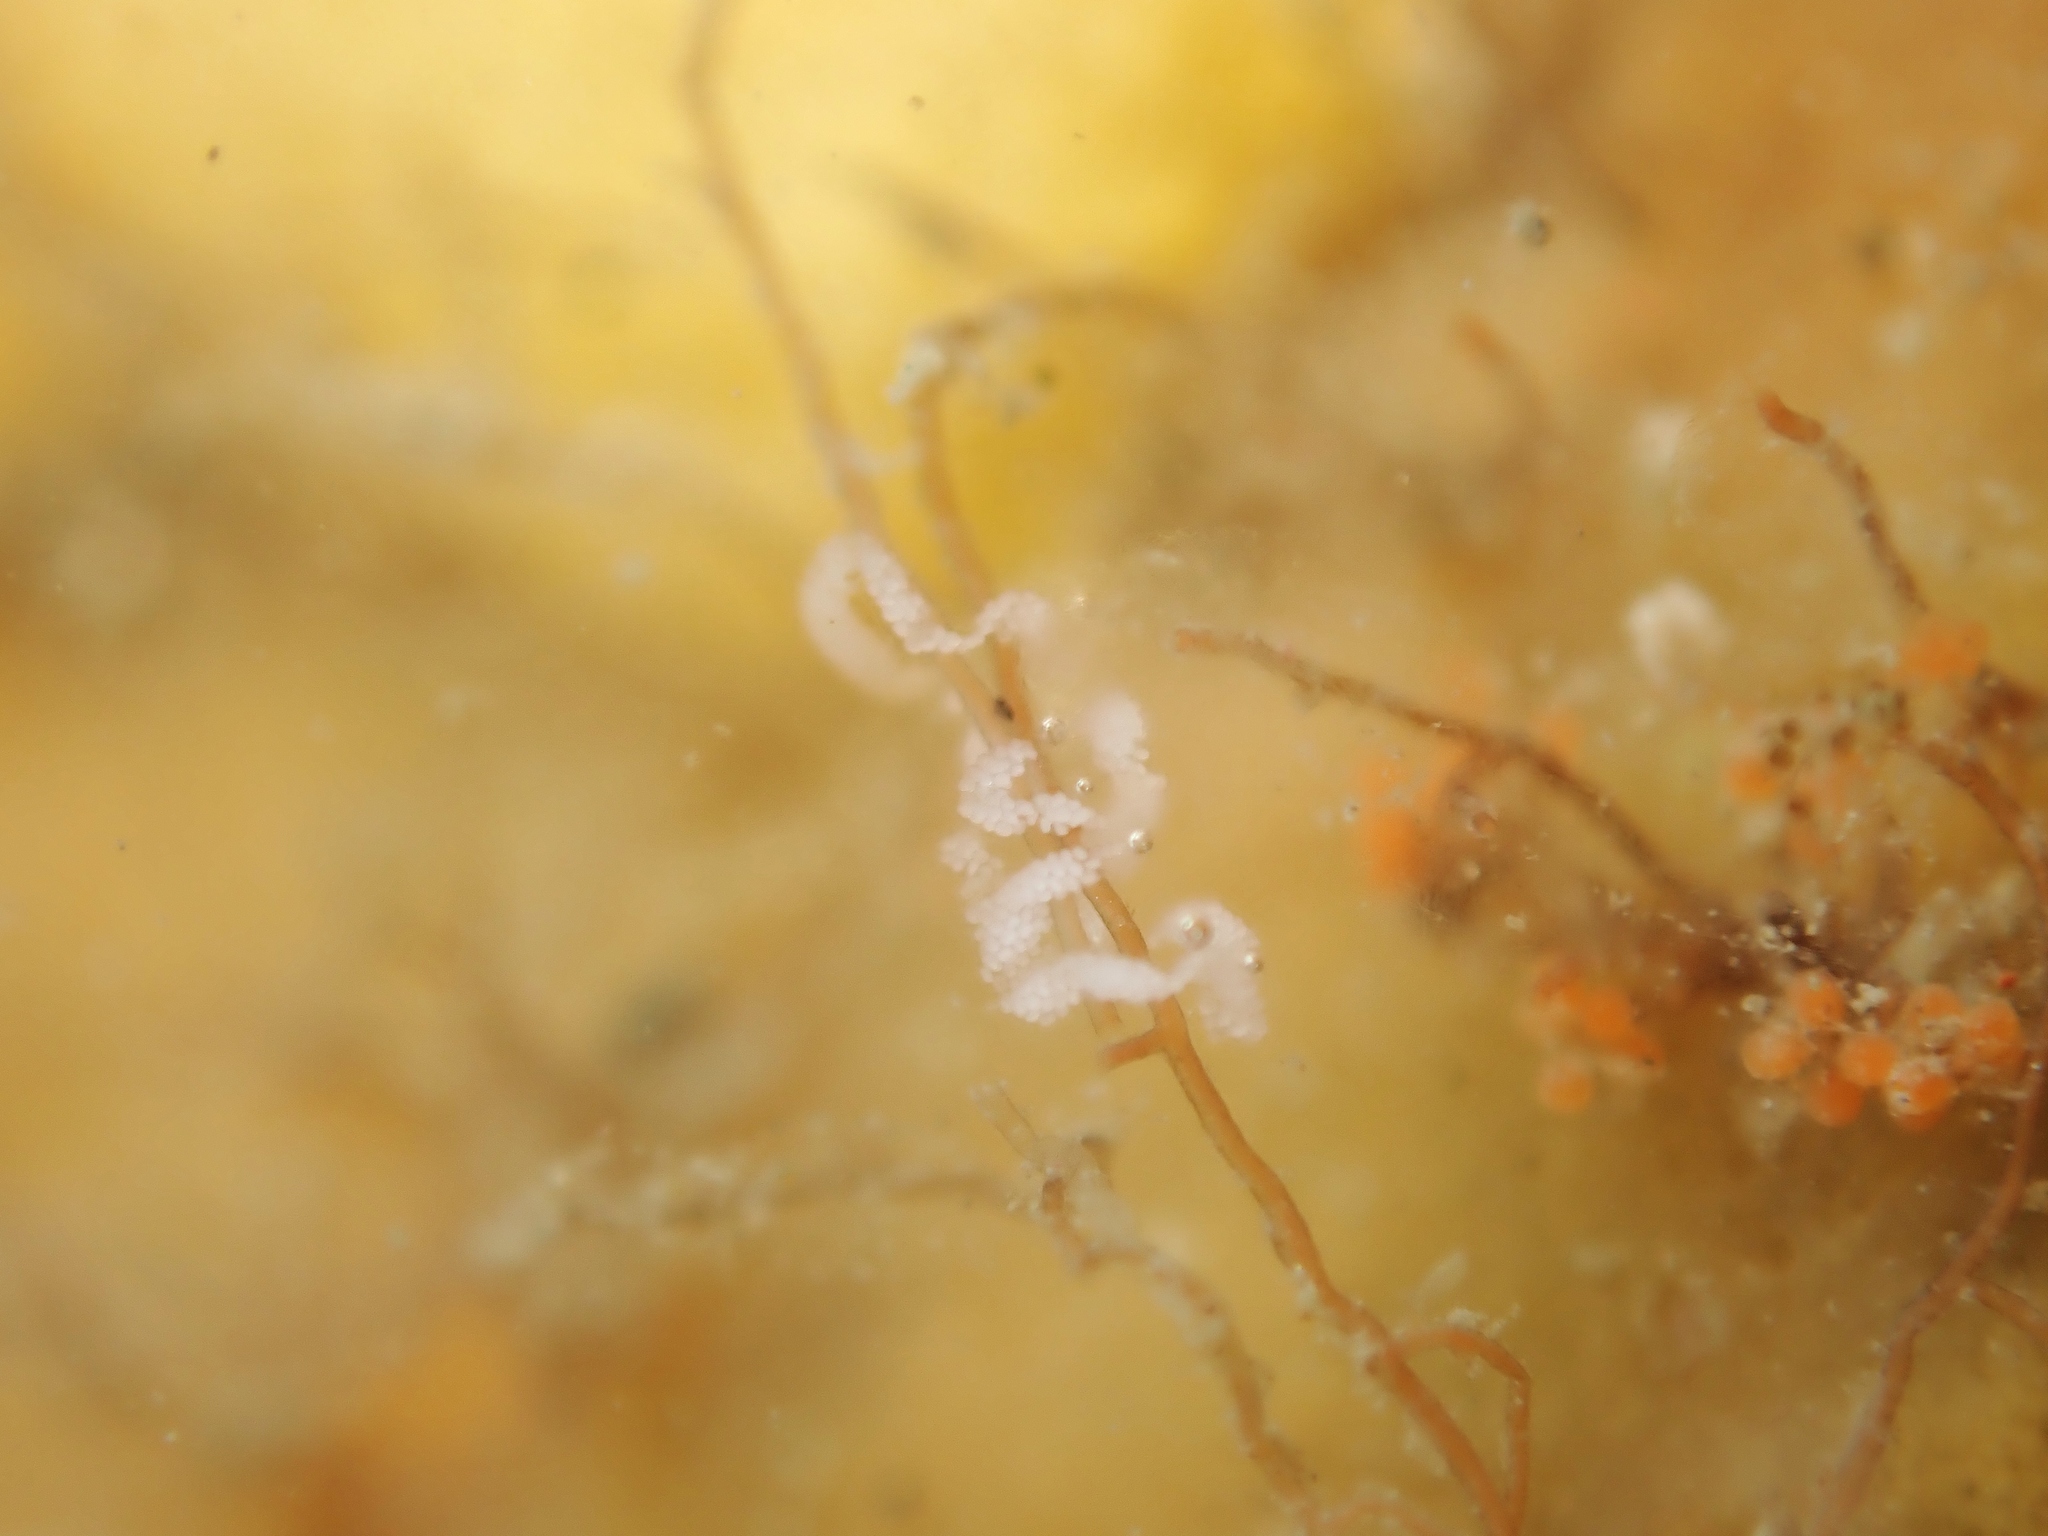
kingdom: Animalia
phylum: Mollusca
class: Gastropoda
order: Nudibranchia
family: Flabellinidae
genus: Coryphellina
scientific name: Coryphellina albomarginata
